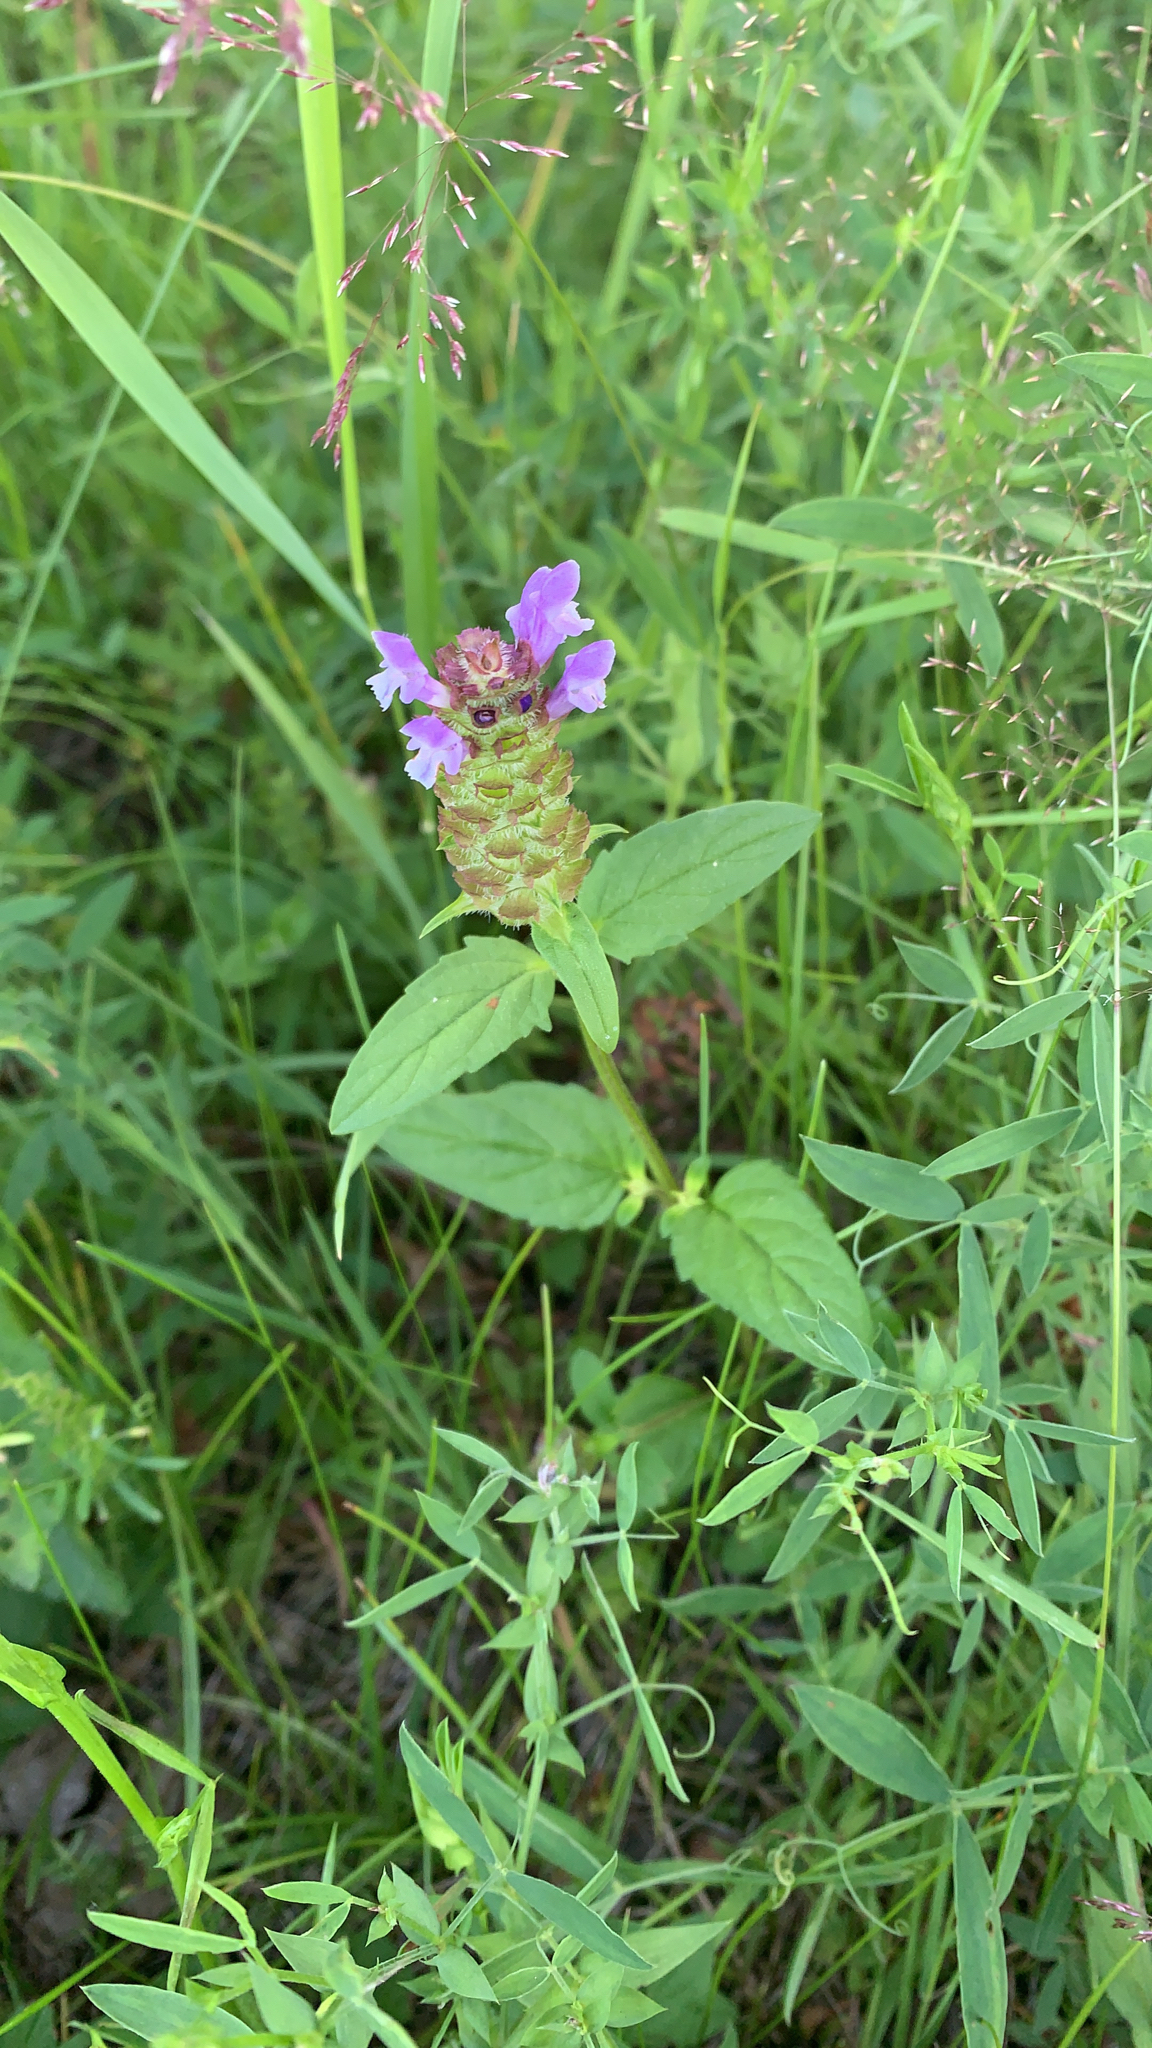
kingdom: Plantae
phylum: Tracheophyta
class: Magnoliopsida
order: Lamiales
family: Lamiaceae
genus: Prunella
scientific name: Prunella vulgaris
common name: Heal-all
